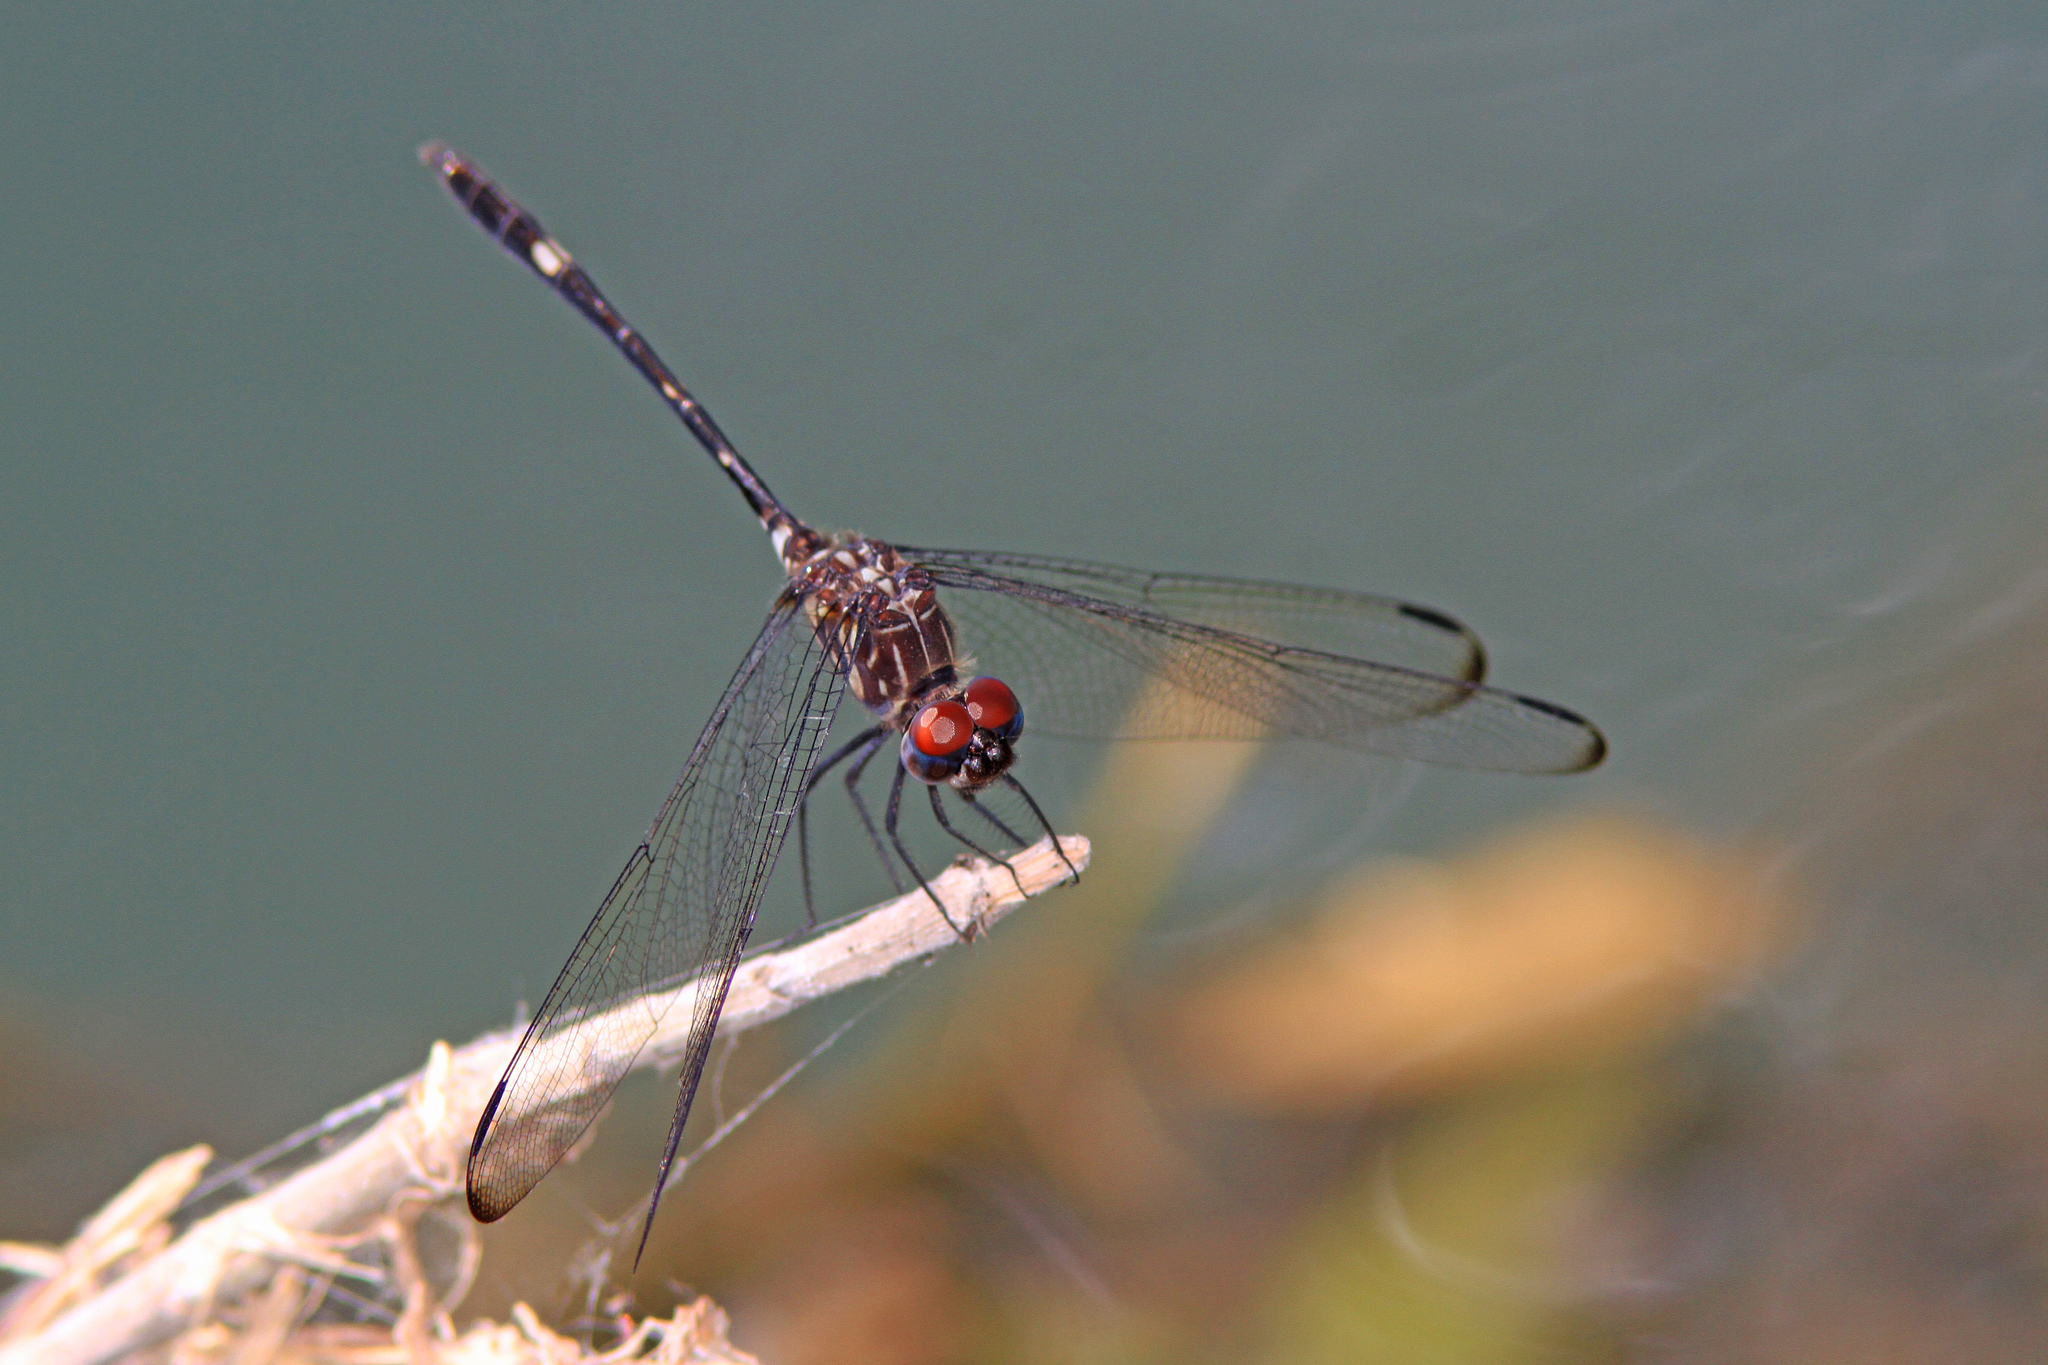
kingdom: Animalia
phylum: Arthropoda
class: Insecta
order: Odonata
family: Libellulidae
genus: Dythemis
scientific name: Dythemis velox
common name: Swift setwing
